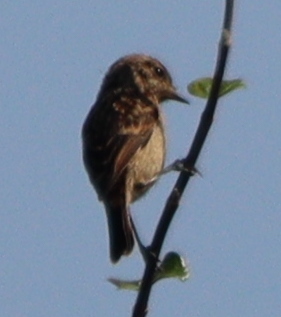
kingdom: Animalia
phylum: Chordata
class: Aves
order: Passeriformes
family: Muscicapidae
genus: Saxicola
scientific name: Saxicola rubicola
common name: European stonechat
